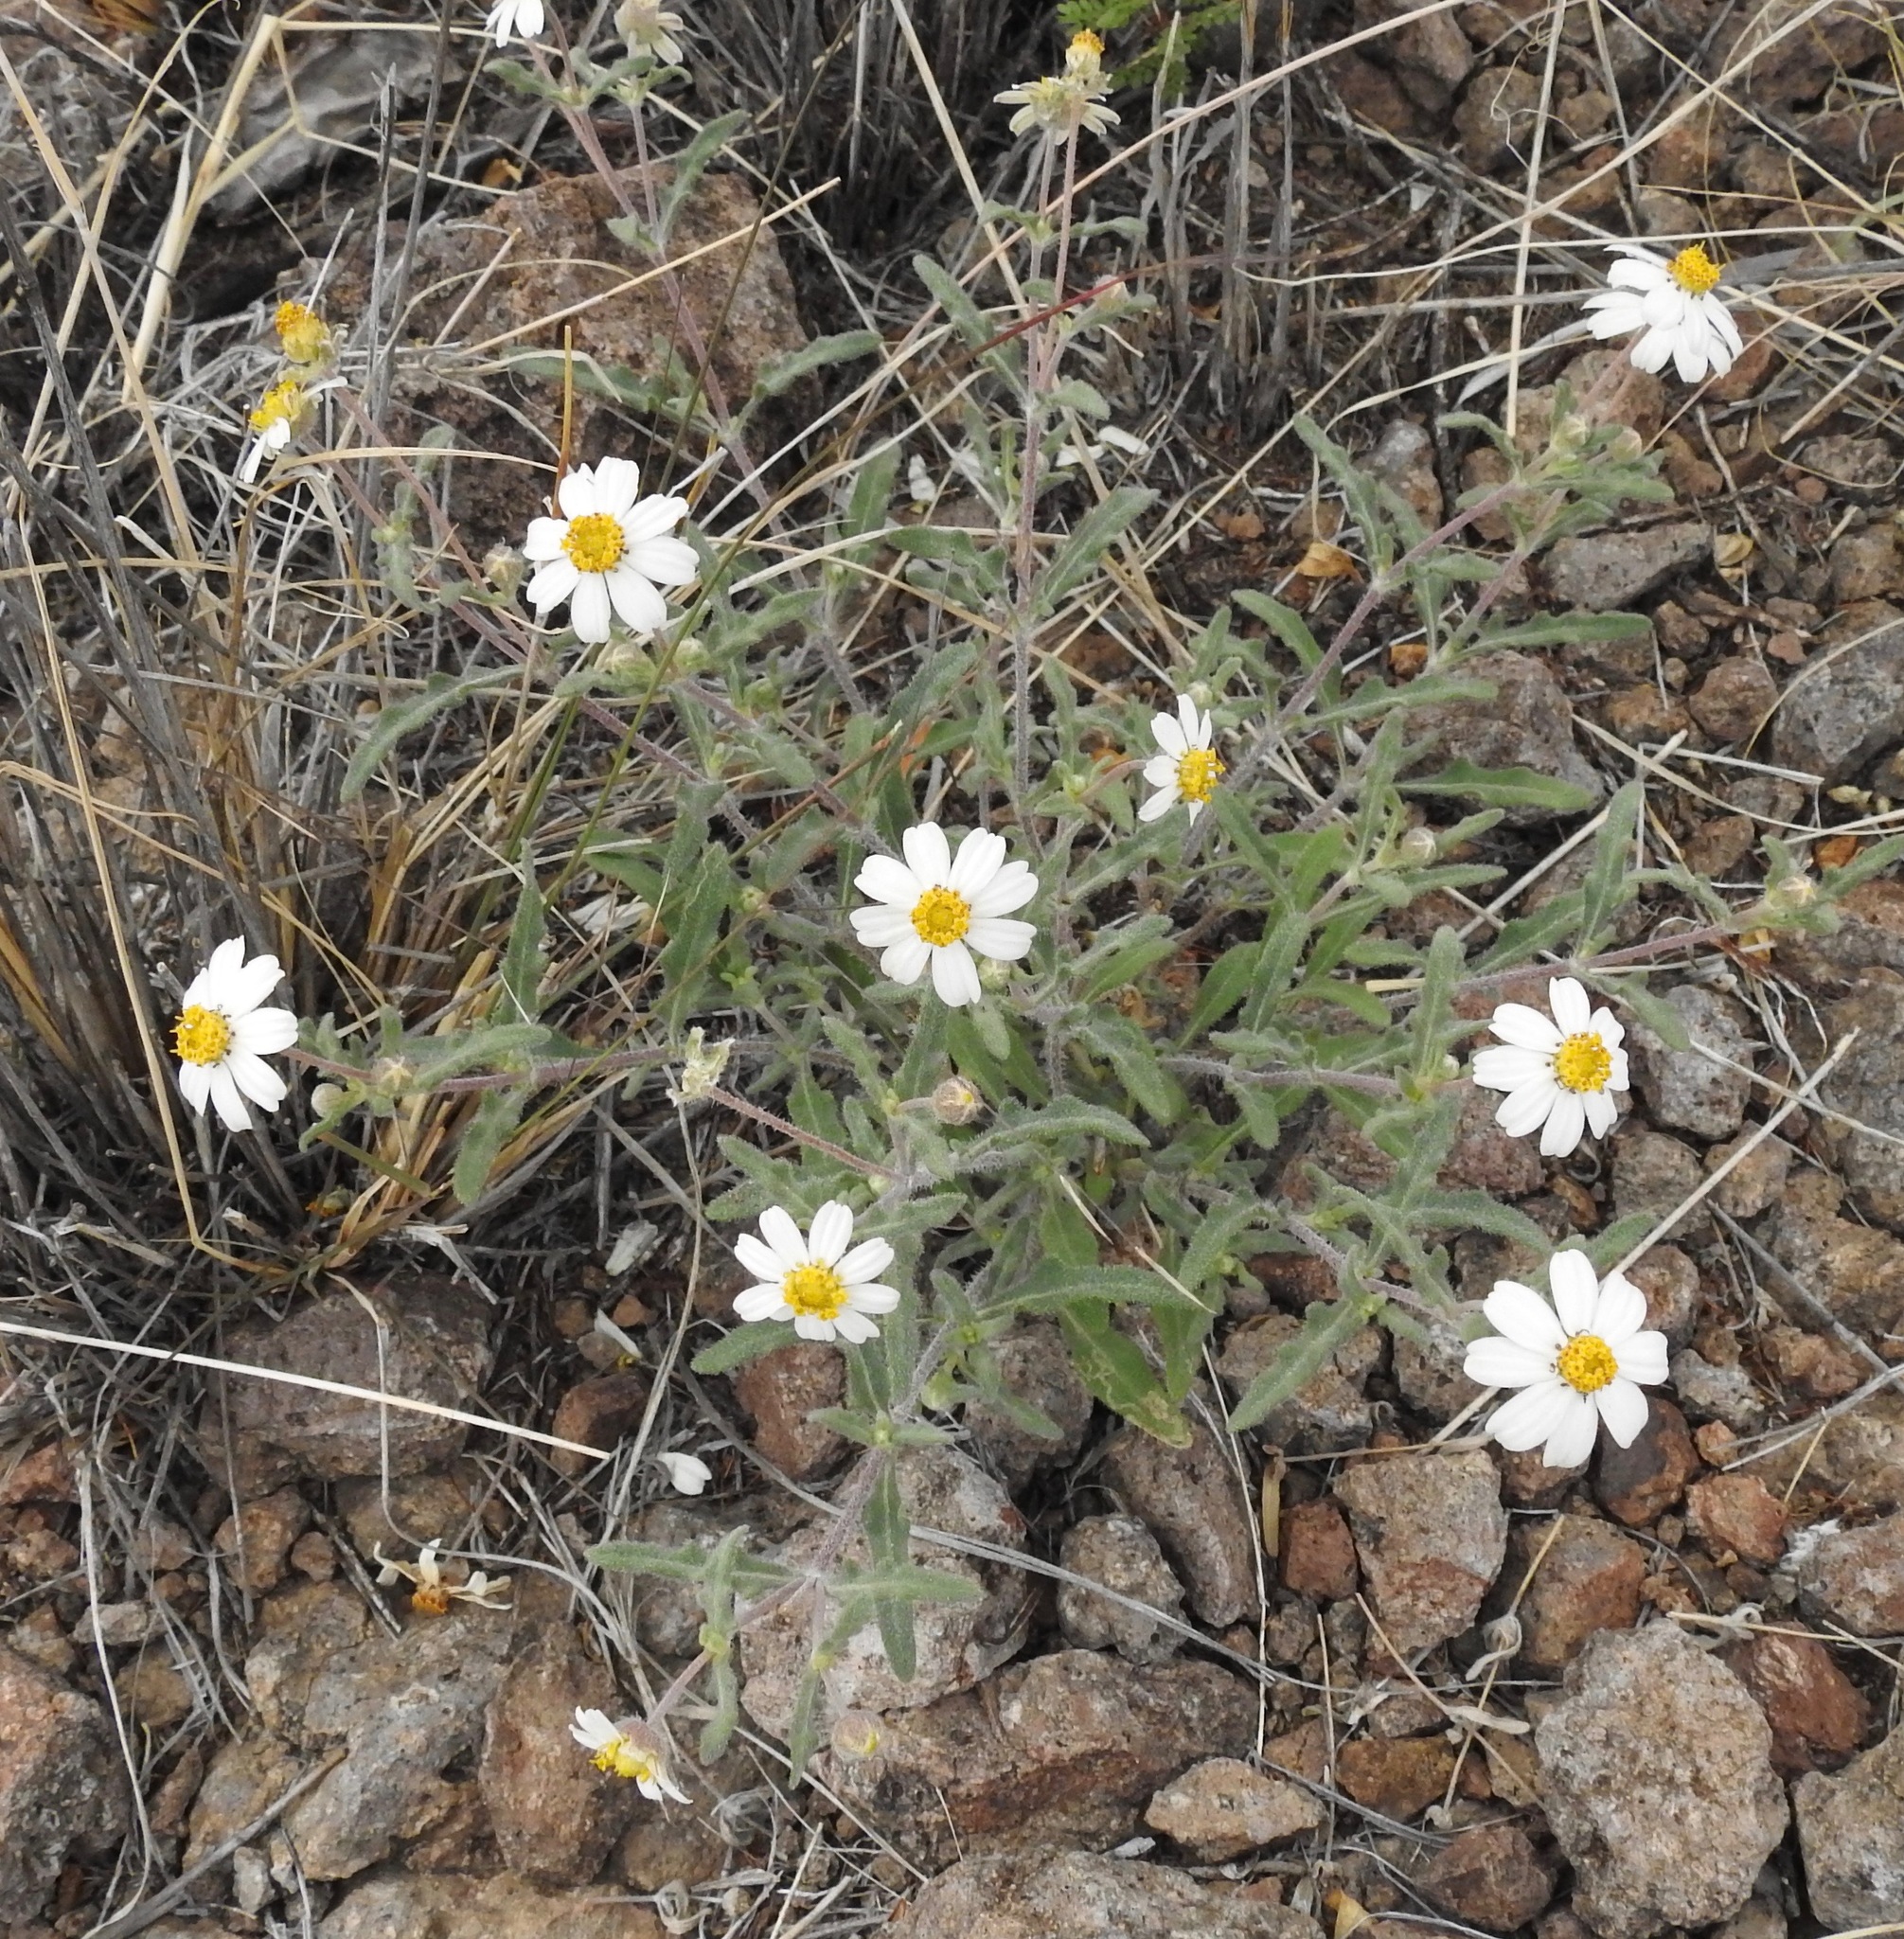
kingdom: Plantae
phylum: Tracheophyta
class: Magnoliopsida
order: Asterales
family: Asteraceae
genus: Melampodium
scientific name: Melampodium leucanthum
